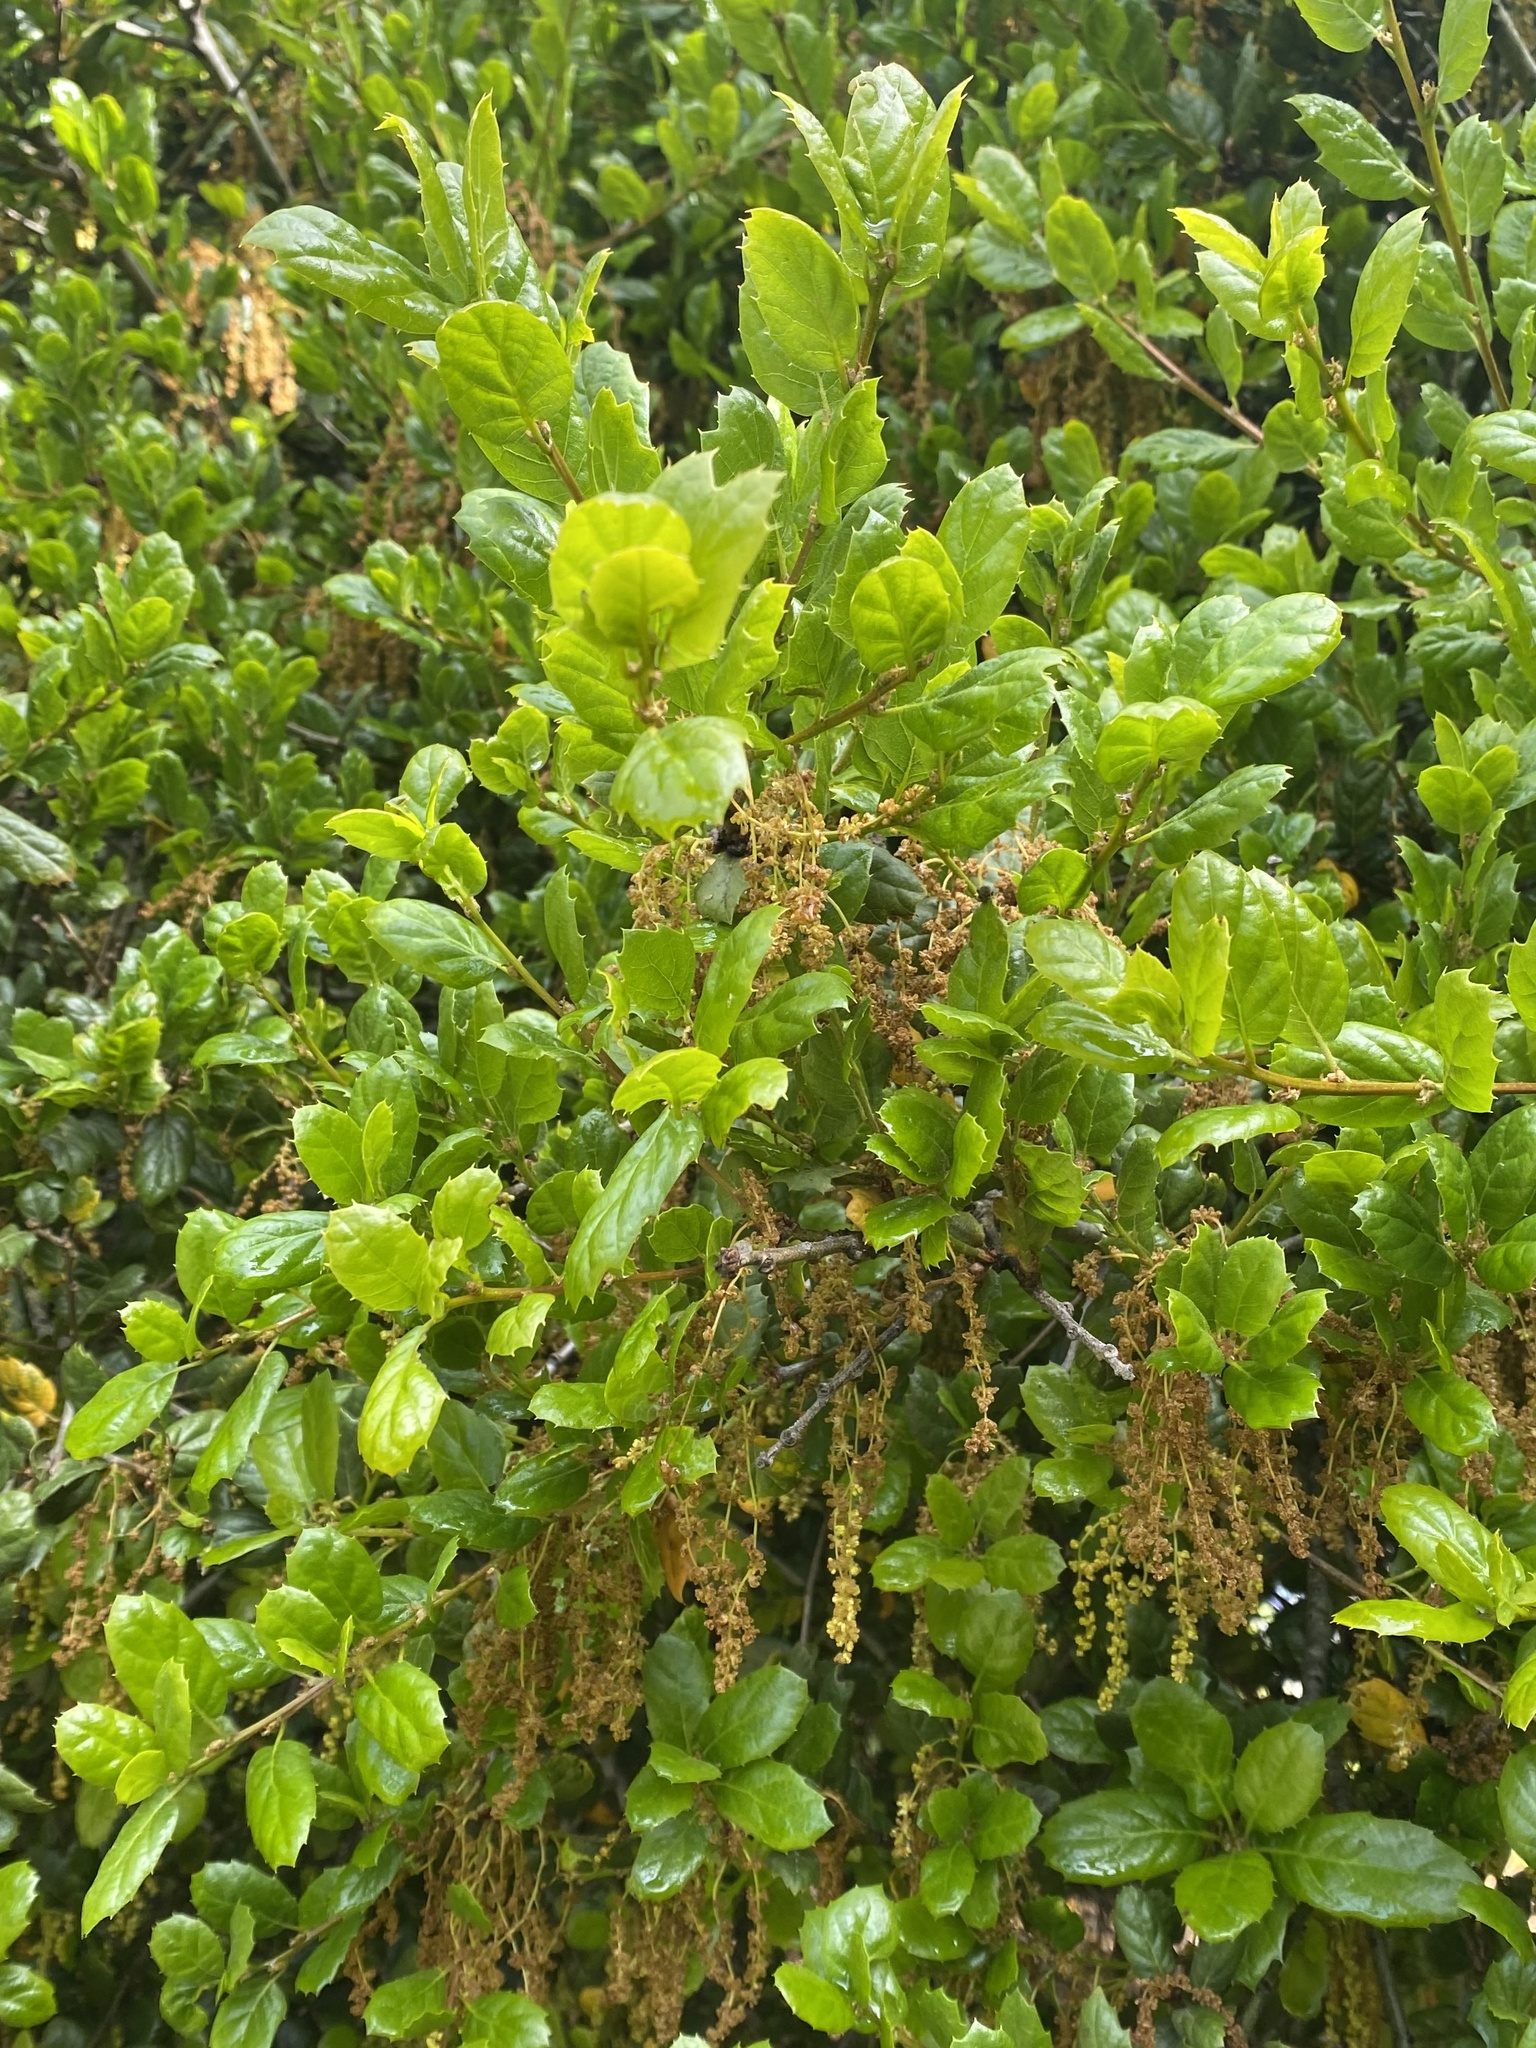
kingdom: Plantae
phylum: Tracheophyta
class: Magnoliopsida
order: Fagales
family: Fagaceae
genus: Quercus
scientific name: Quercus agrifolia
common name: California live oak
